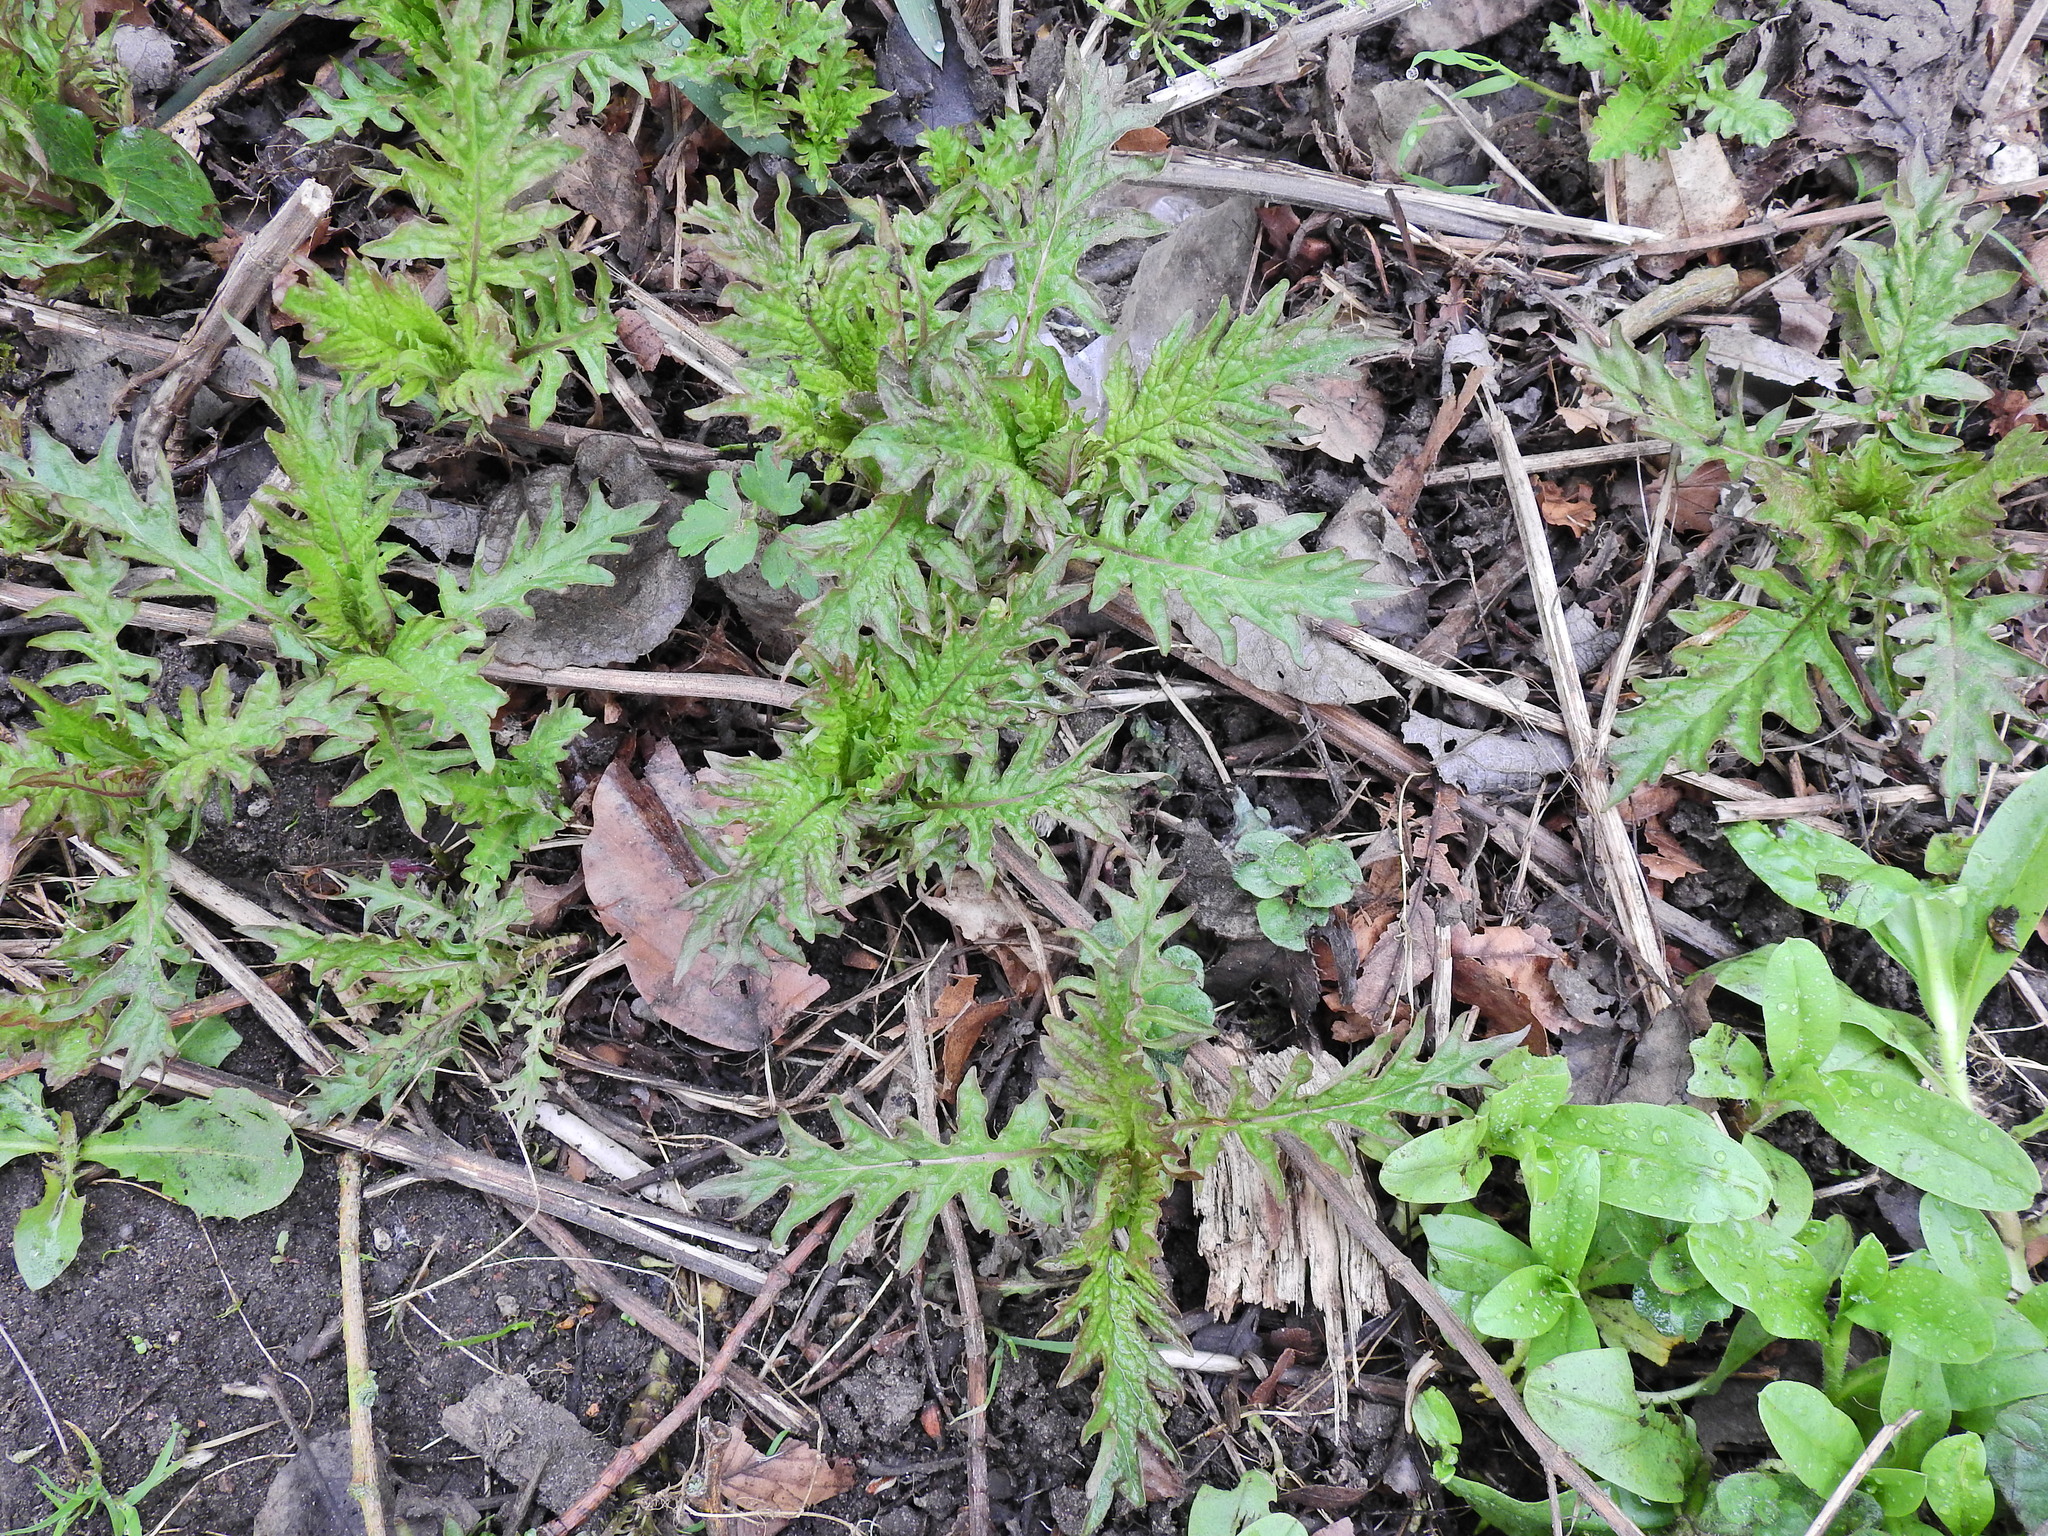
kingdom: Plantae
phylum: Tracheophyta
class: Magnoliopsida
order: Lamiales
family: Lamiaceae
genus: Lycopus
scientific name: Lycopus europaeus
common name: European bugleweed
